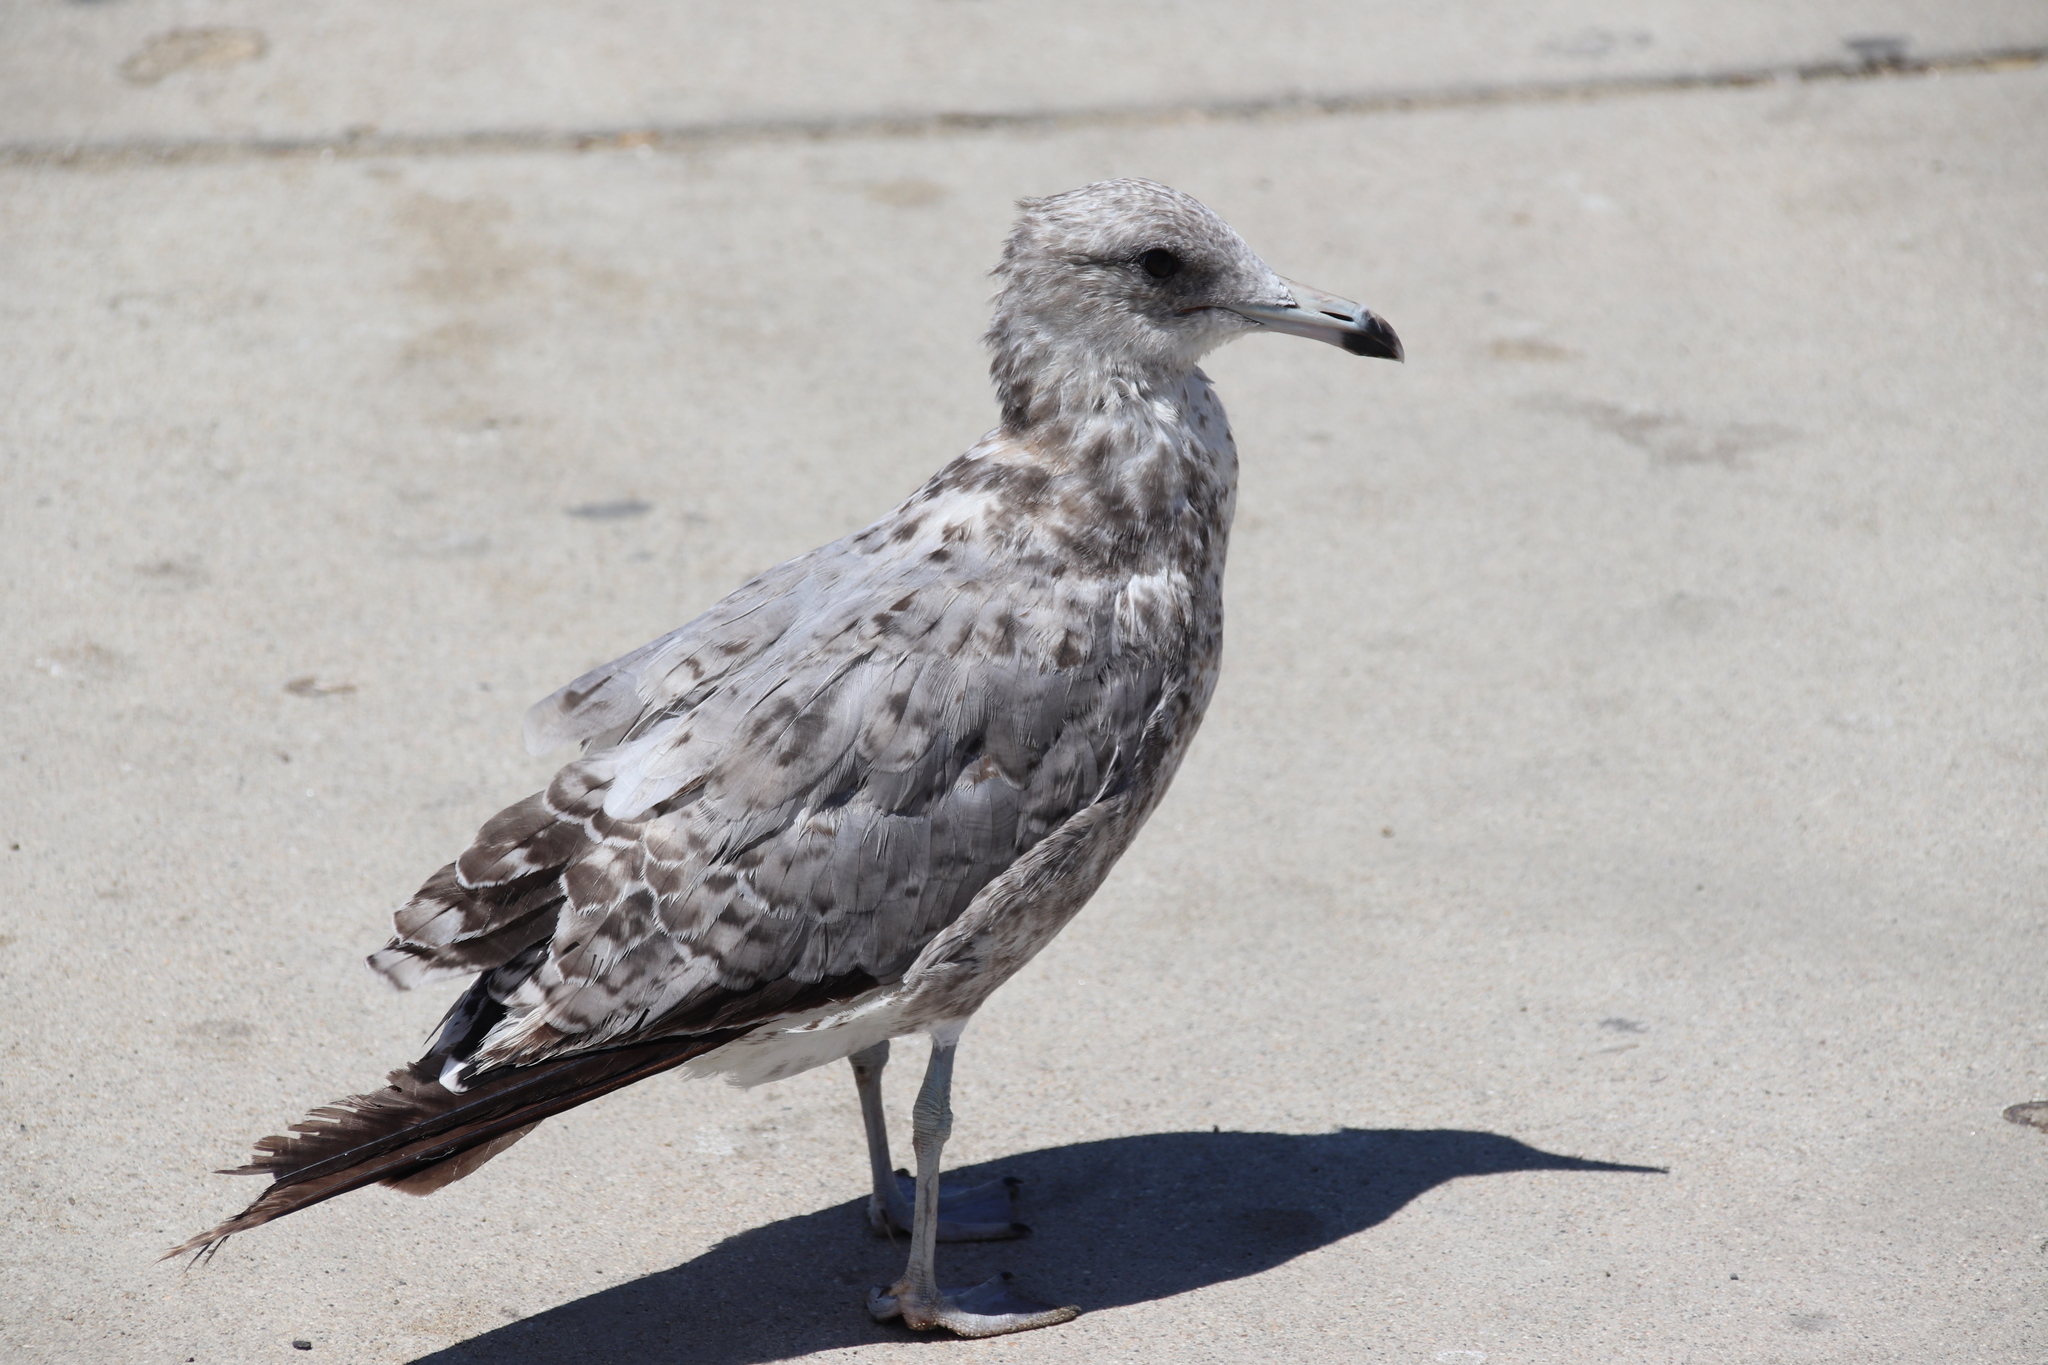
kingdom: Animalia
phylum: Chordata
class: Aves
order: Charadriiformes
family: Laridae
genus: Larus
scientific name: Larus californicus
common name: California gull
